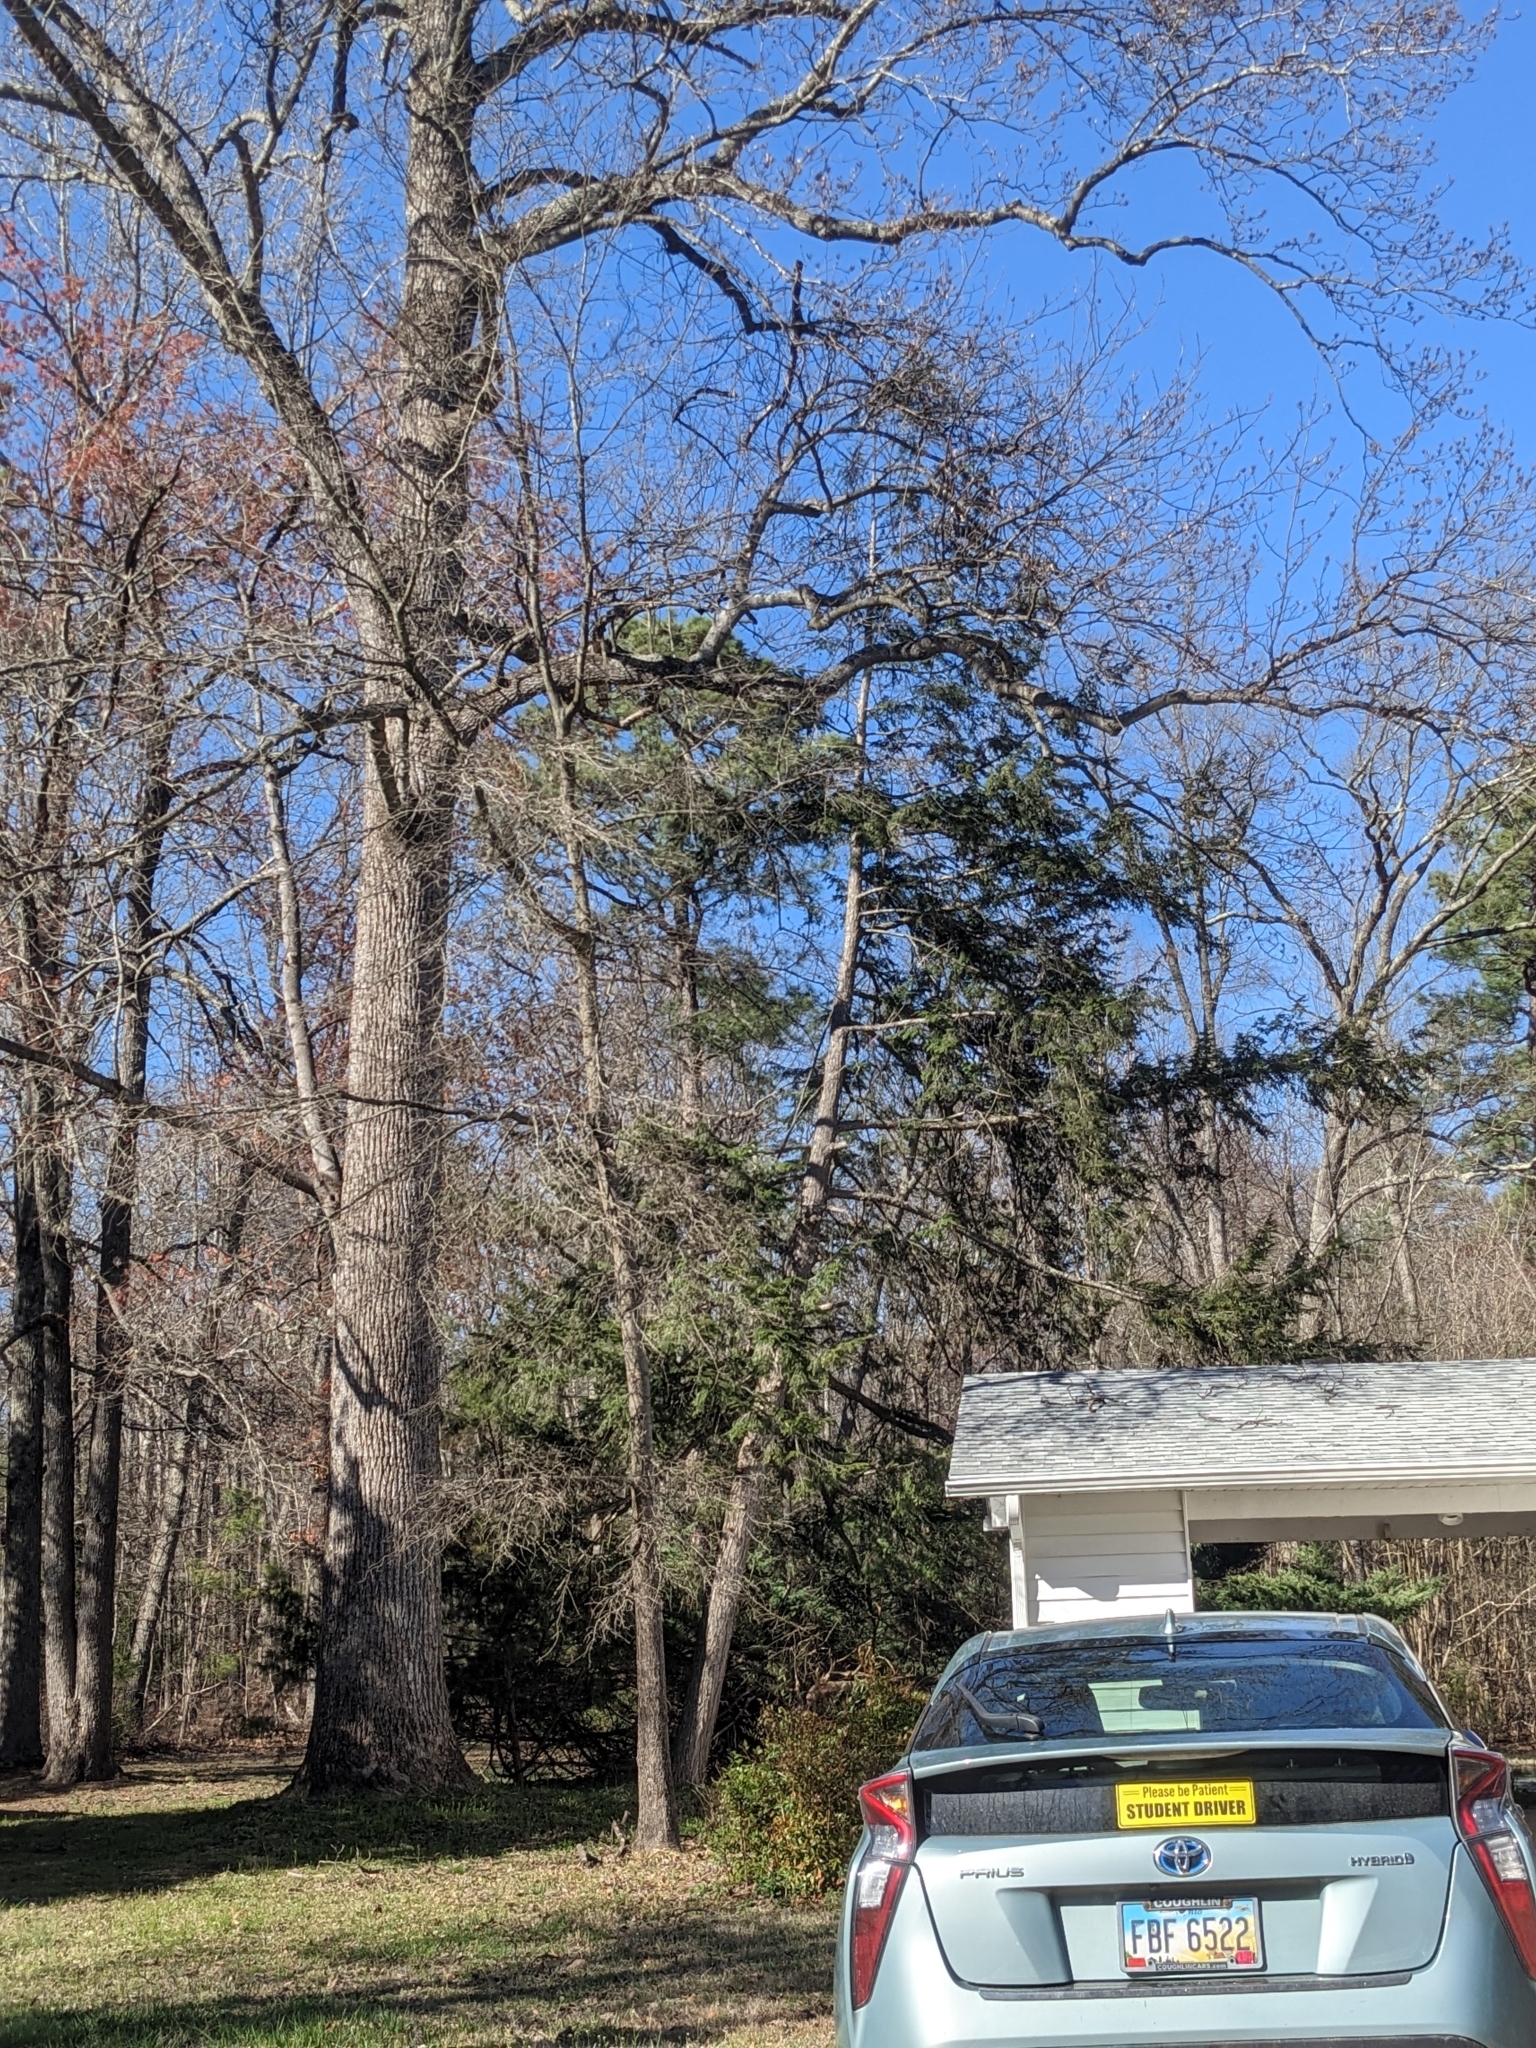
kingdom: Plantae
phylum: Tracheophyta
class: Pinopsida
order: Pinales
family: Pinaceae
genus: Tsuga
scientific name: Tsuga canadensis
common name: Eastern hemlock
